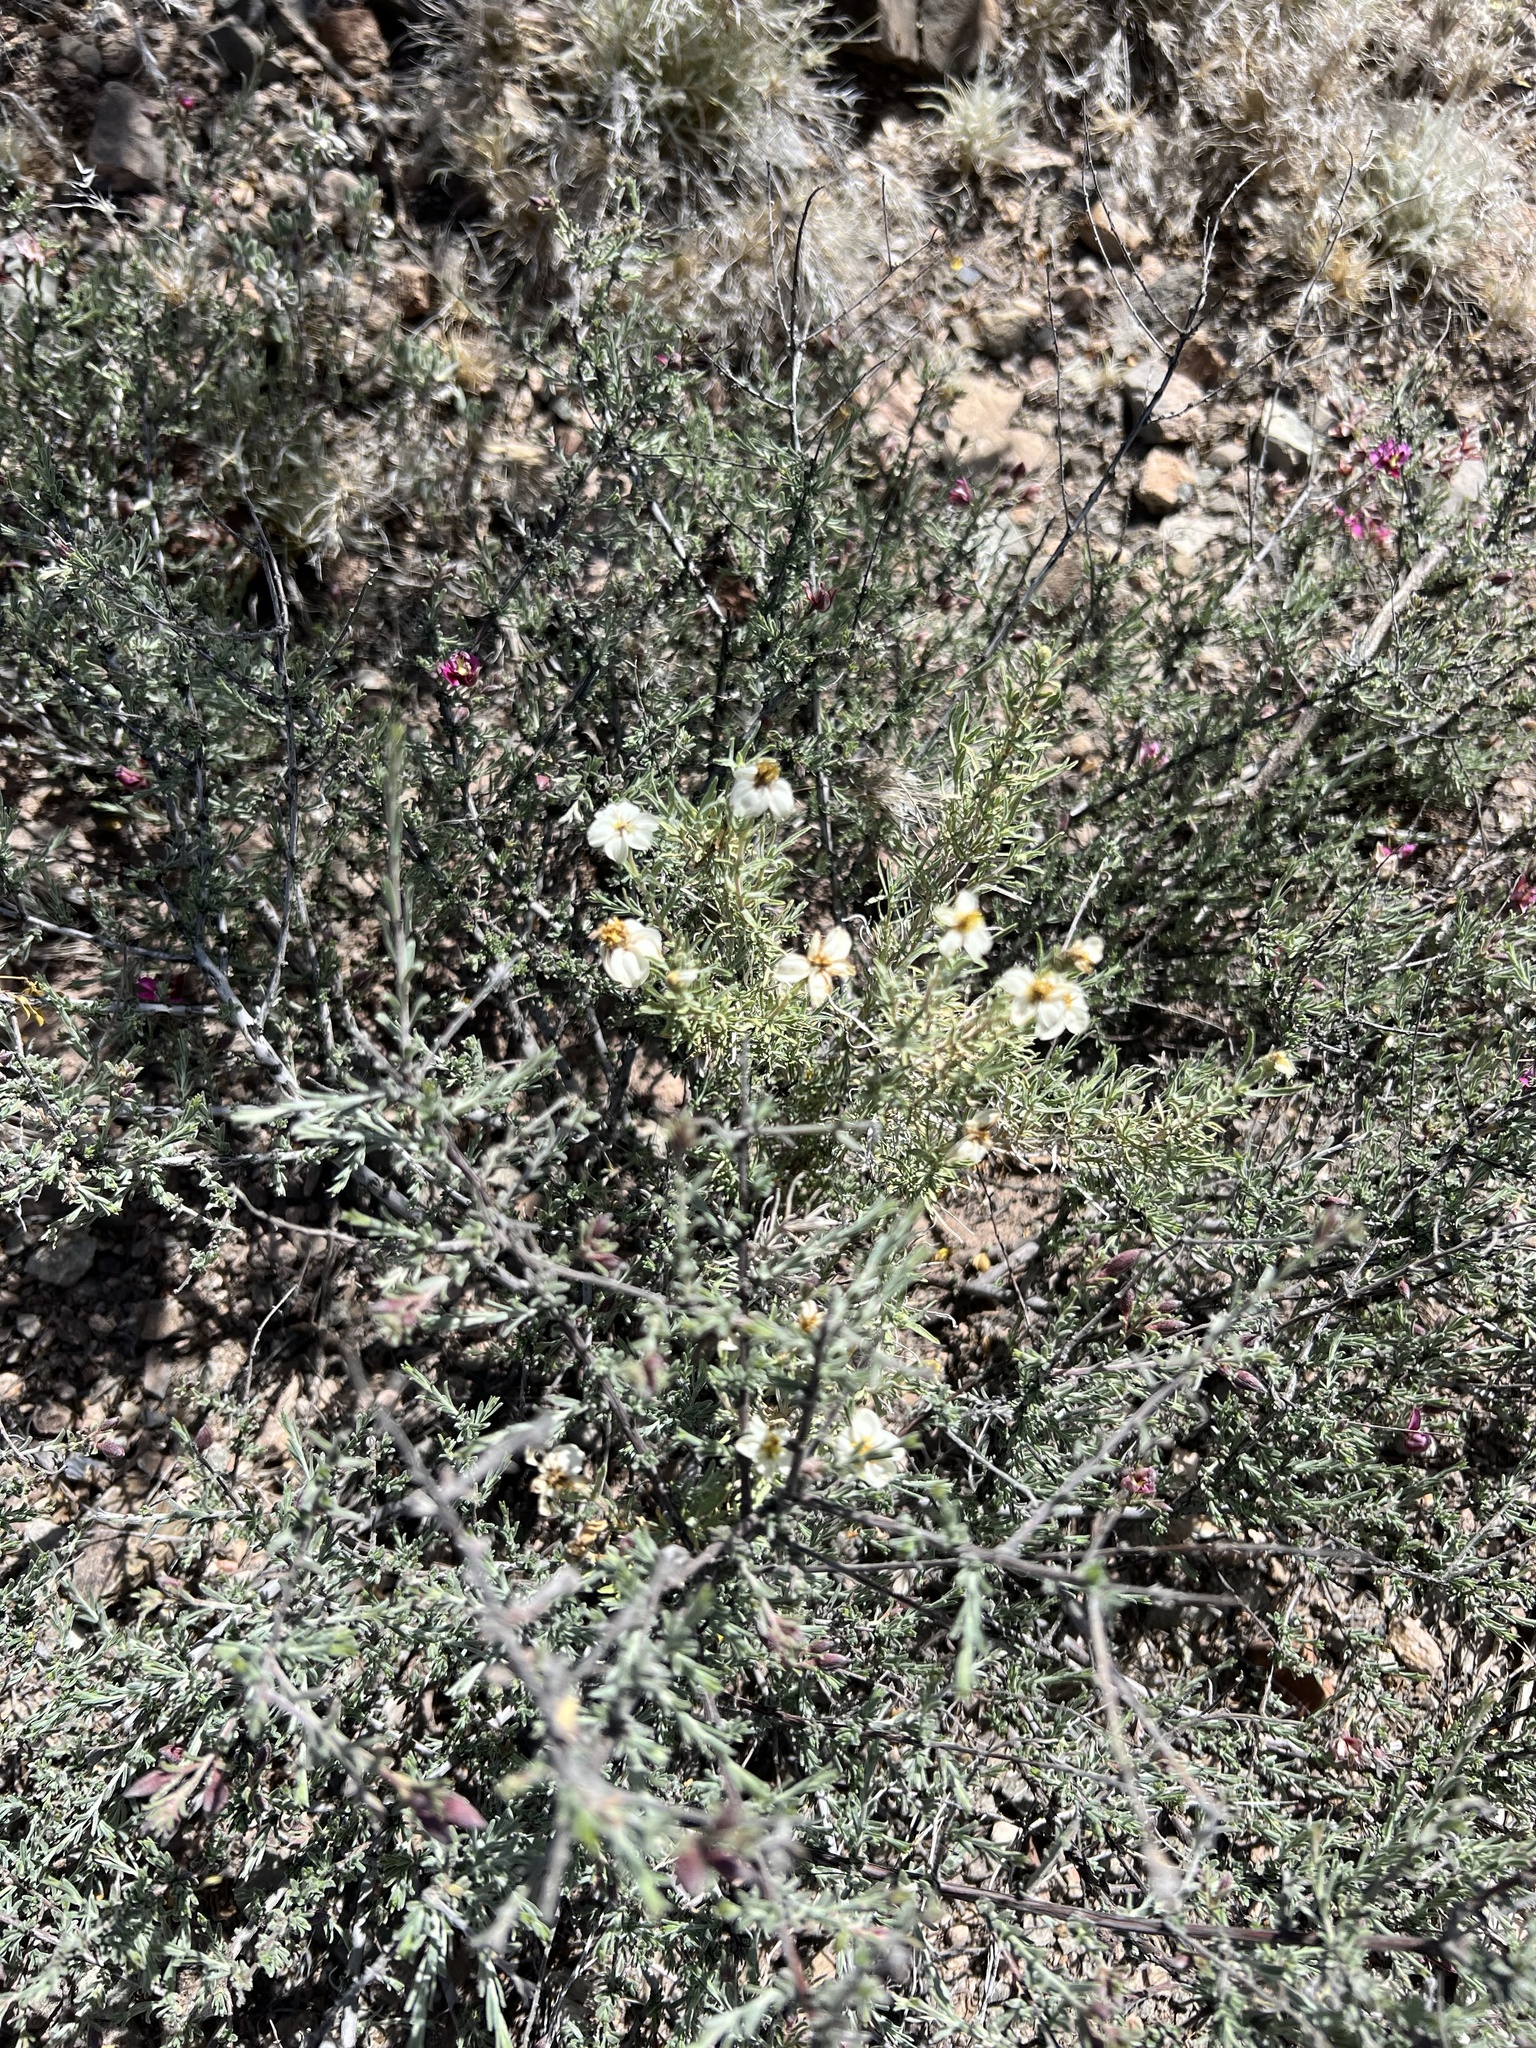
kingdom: Plantae
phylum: Tracheophyta
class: Magnoliopsida
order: Asterales
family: Asteraceae
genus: Zinnia
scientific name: Zinnia acerosa
